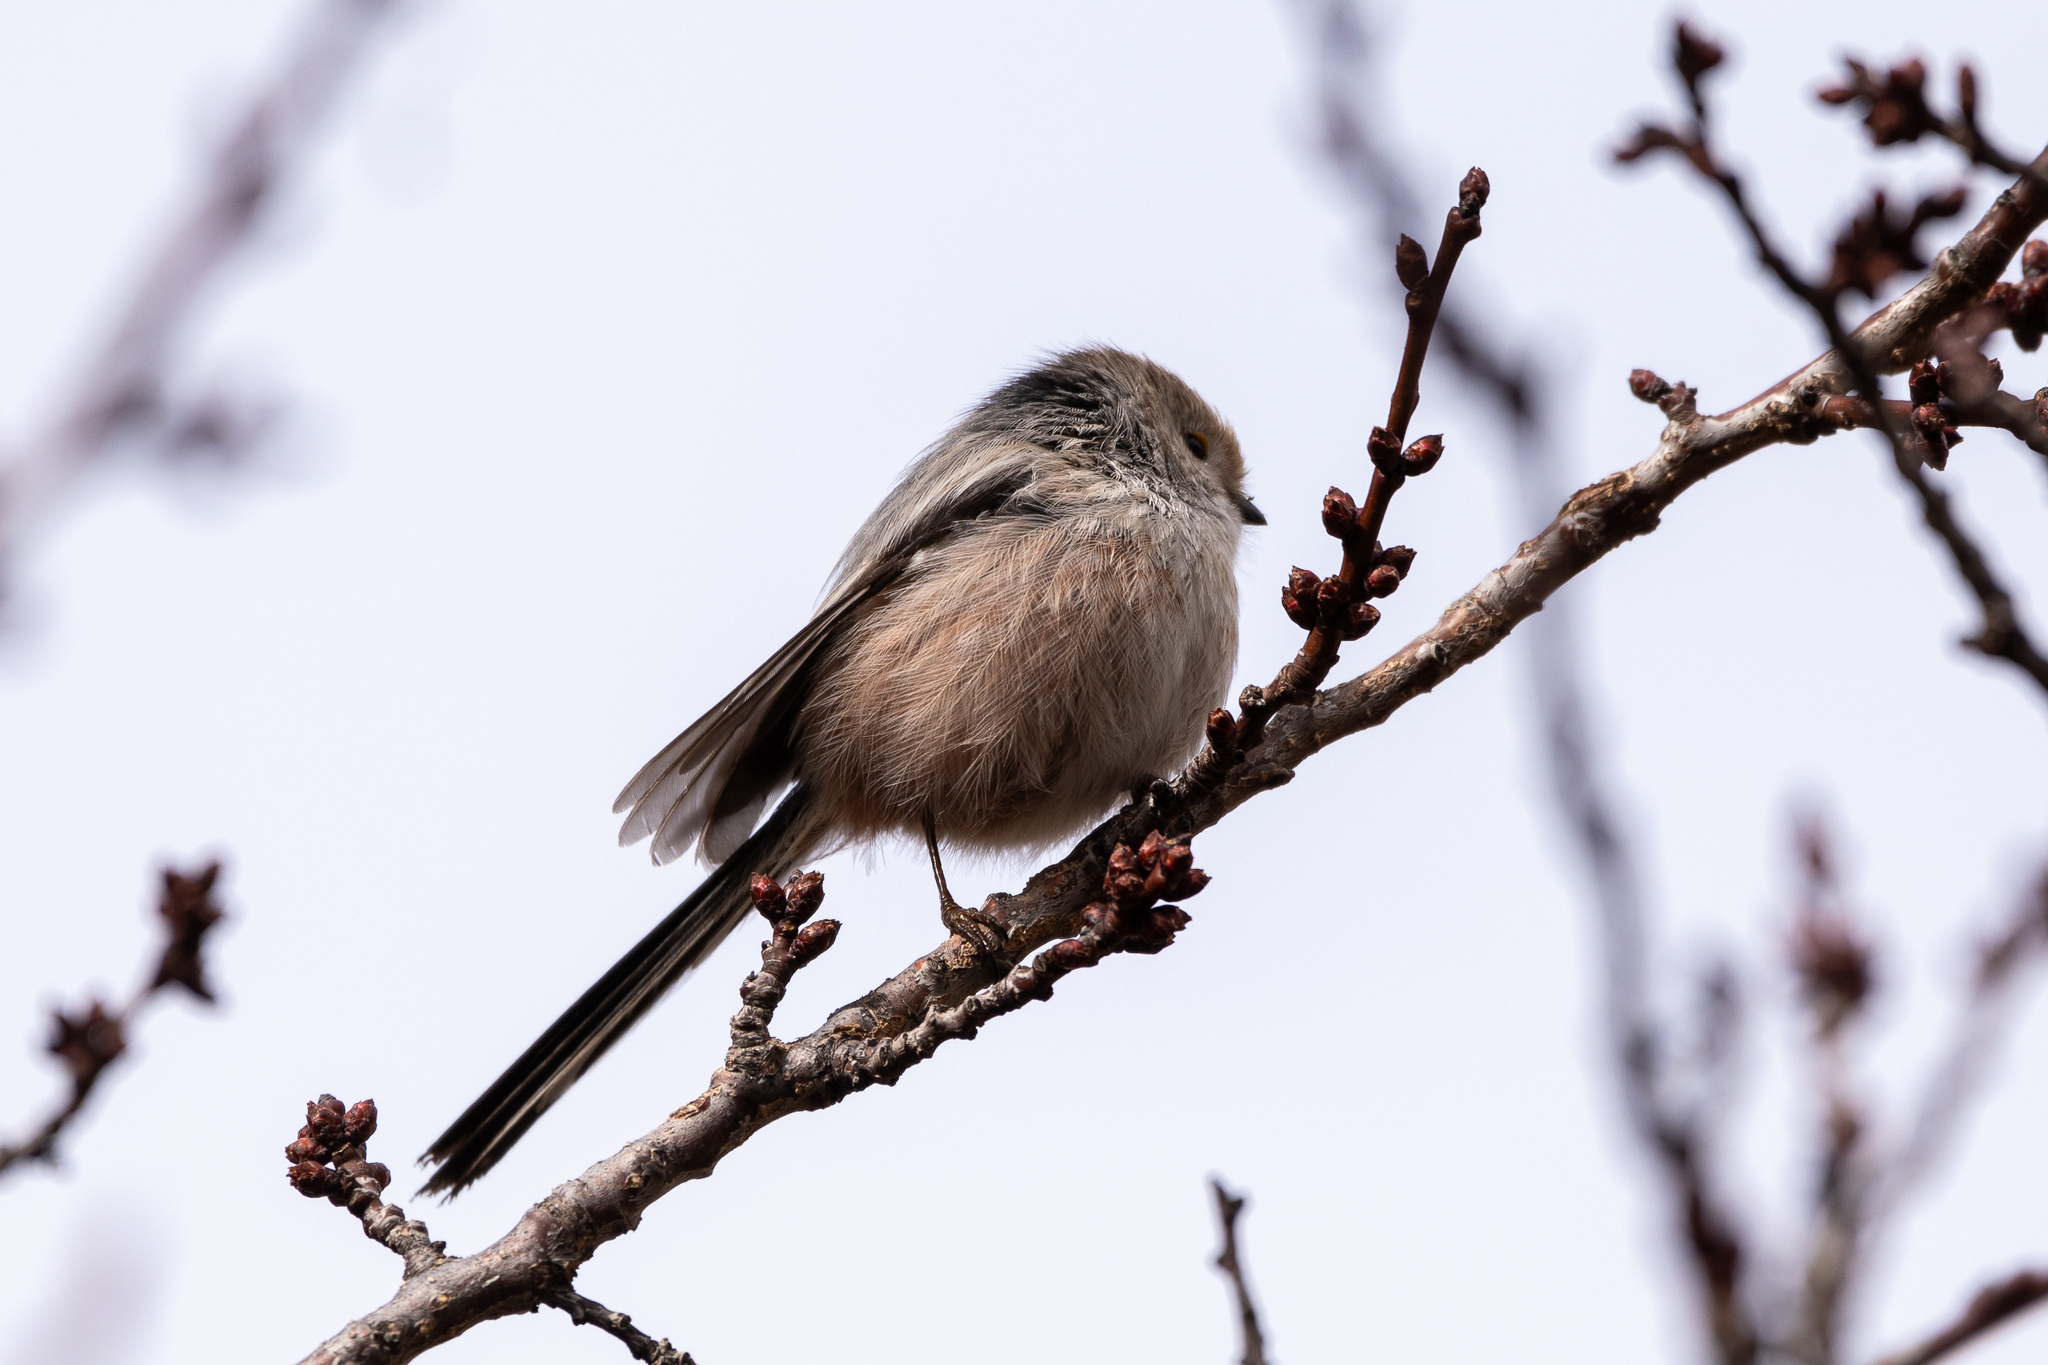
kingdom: Animalia
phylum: Chordata
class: Aves
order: Passeriformes
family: Aegithalidae
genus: Aegithalos
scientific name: Aegithalos caudatus
